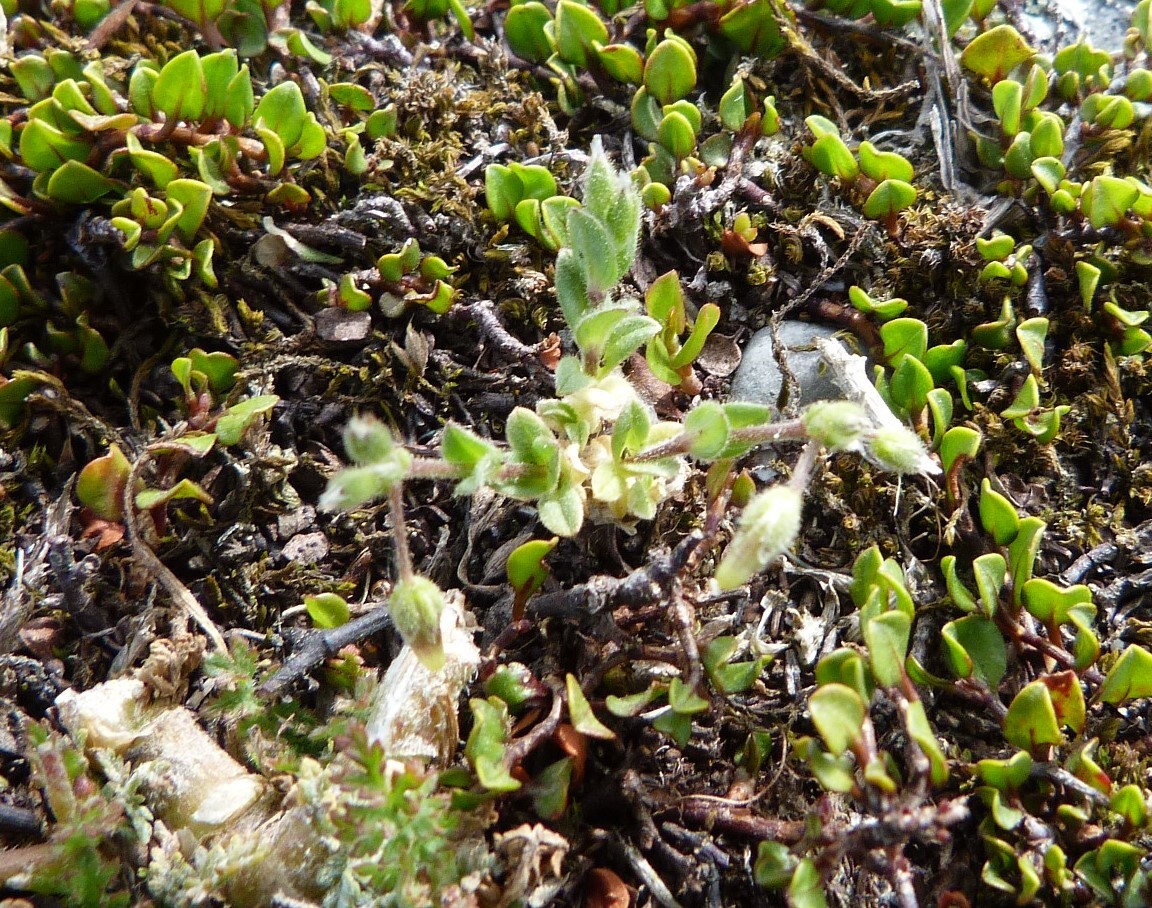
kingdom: Plantae
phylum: Tracheophyta
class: Magnoliopsida
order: Caryophyllales
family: Caryophyllaceae
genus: Cerastium
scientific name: Cerastium semidecandrum
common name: Little mouse-ear
